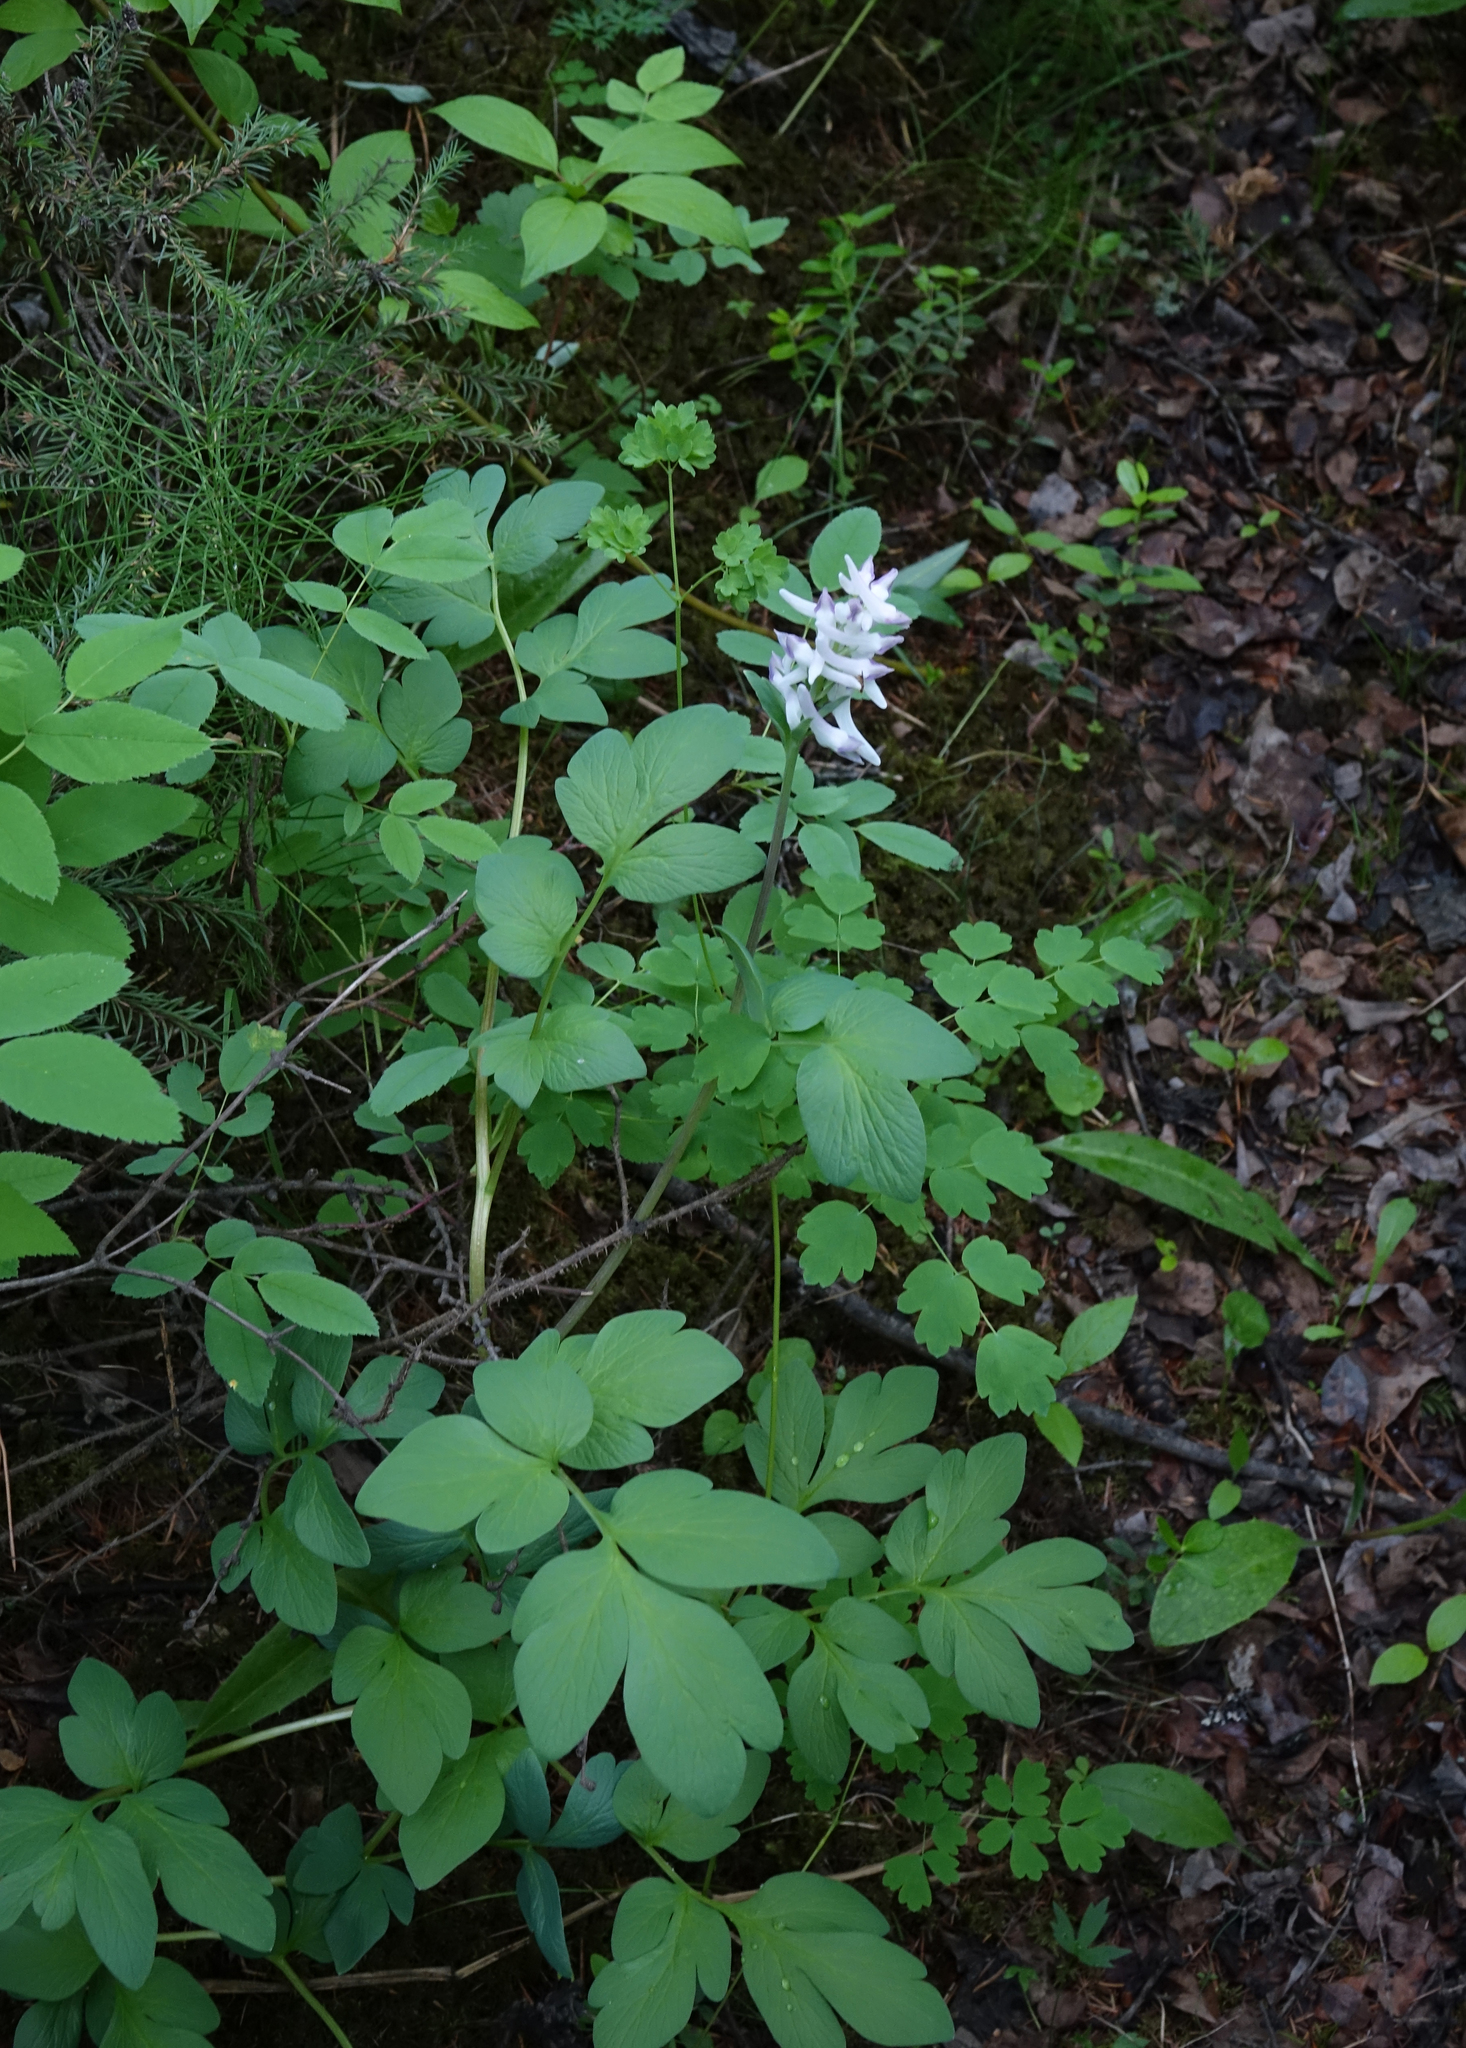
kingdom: Plantae
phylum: Tracheophyta
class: Magnoliopsida
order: Ranunculales
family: Papaveraceae
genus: Corydalis
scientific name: Corydalis paeoniifolia
